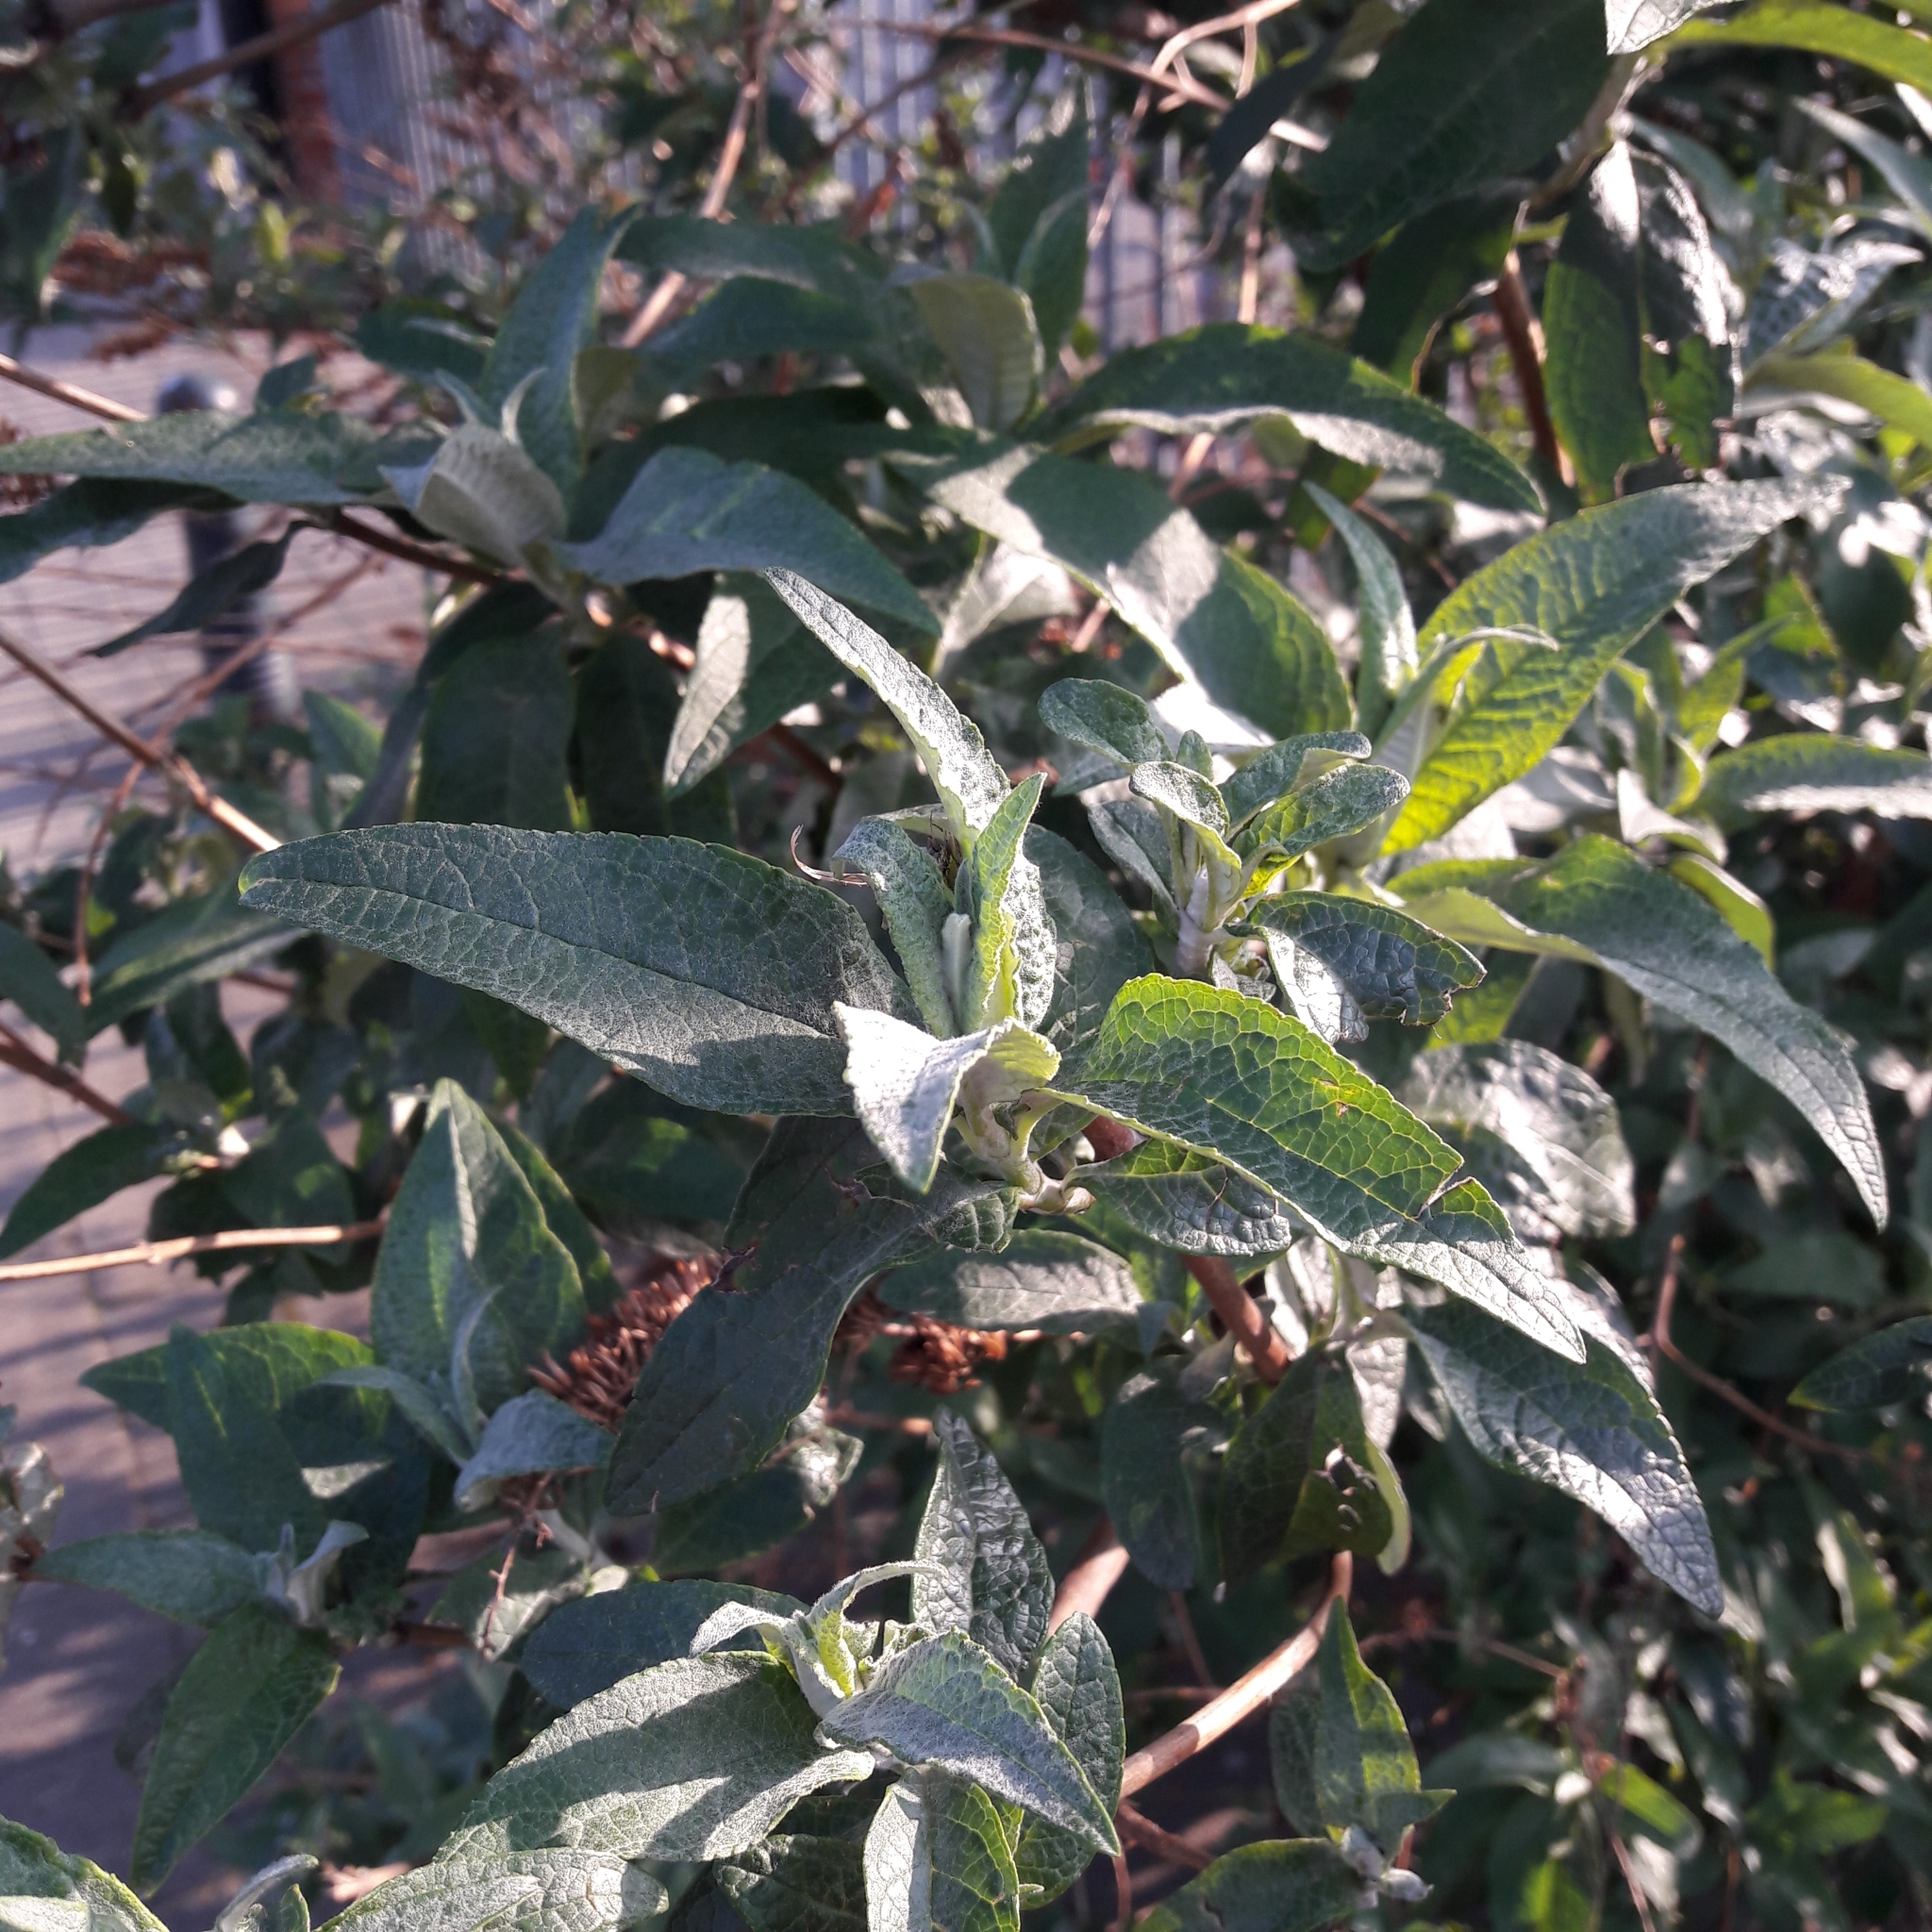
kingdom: Plantae
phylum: Tracheophyta
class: Magnoliopsida
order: Lamiales
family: Scrophulariaceae
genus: Buddleja
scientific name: Buddleja davidii
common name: Butterfly-bush
